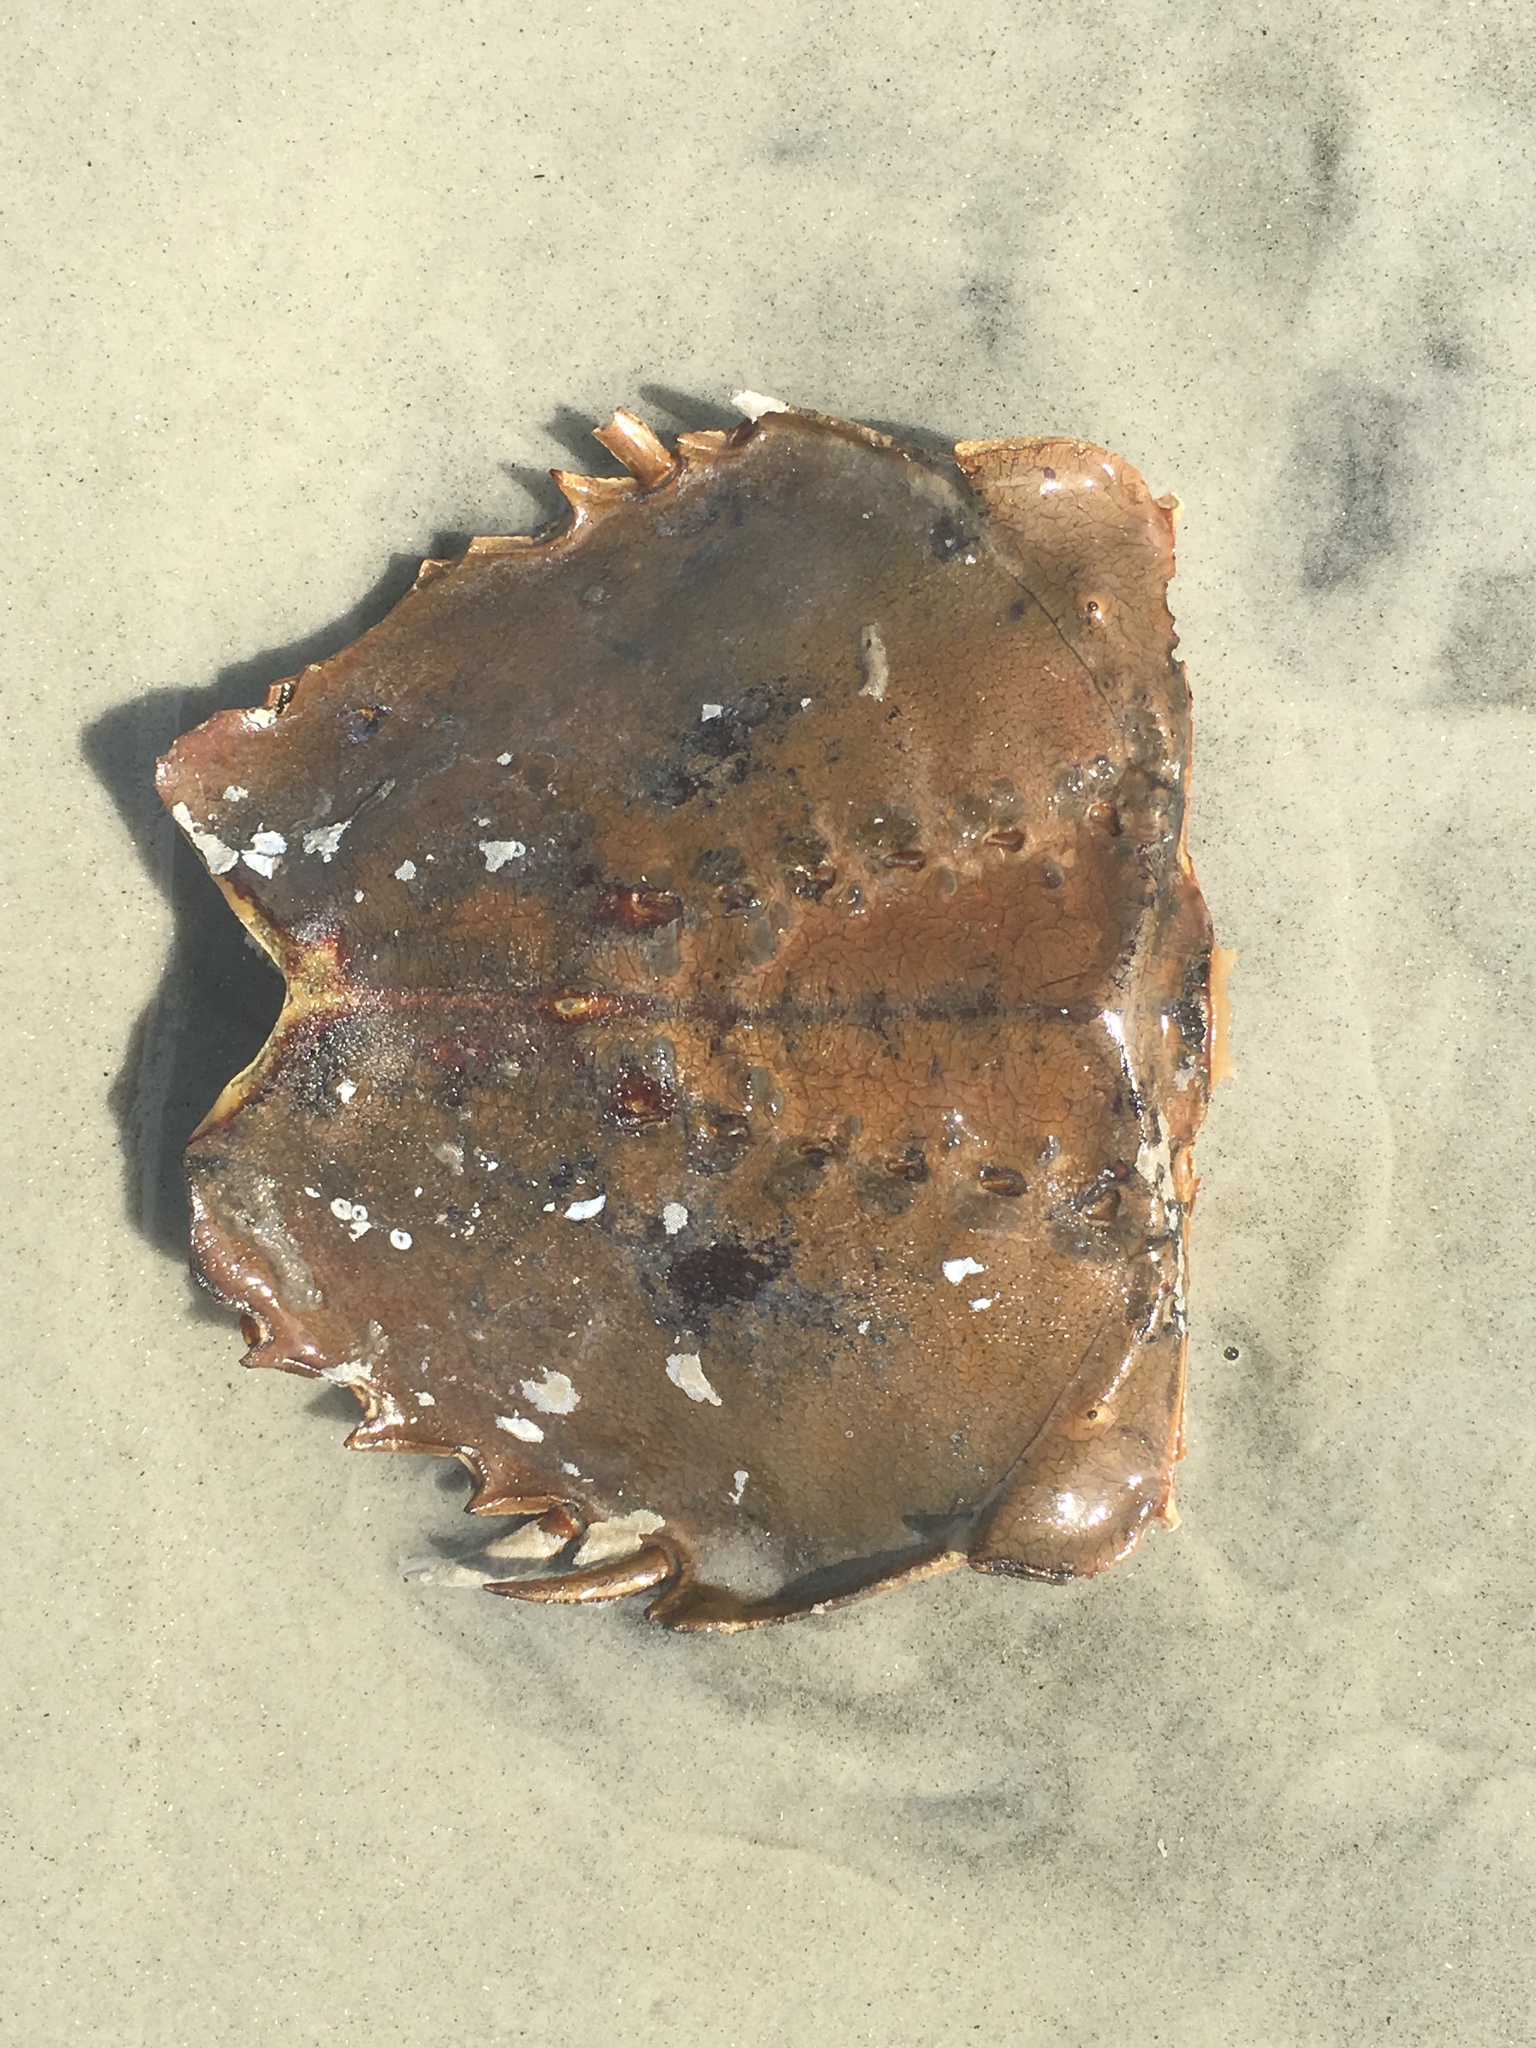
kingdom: Animalia
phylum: Arthropoda
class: Merostomata
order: Xiphosurida
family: Limulidae
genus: Limulus
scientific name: Limulus polyphemus
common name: Horseshoe crab
